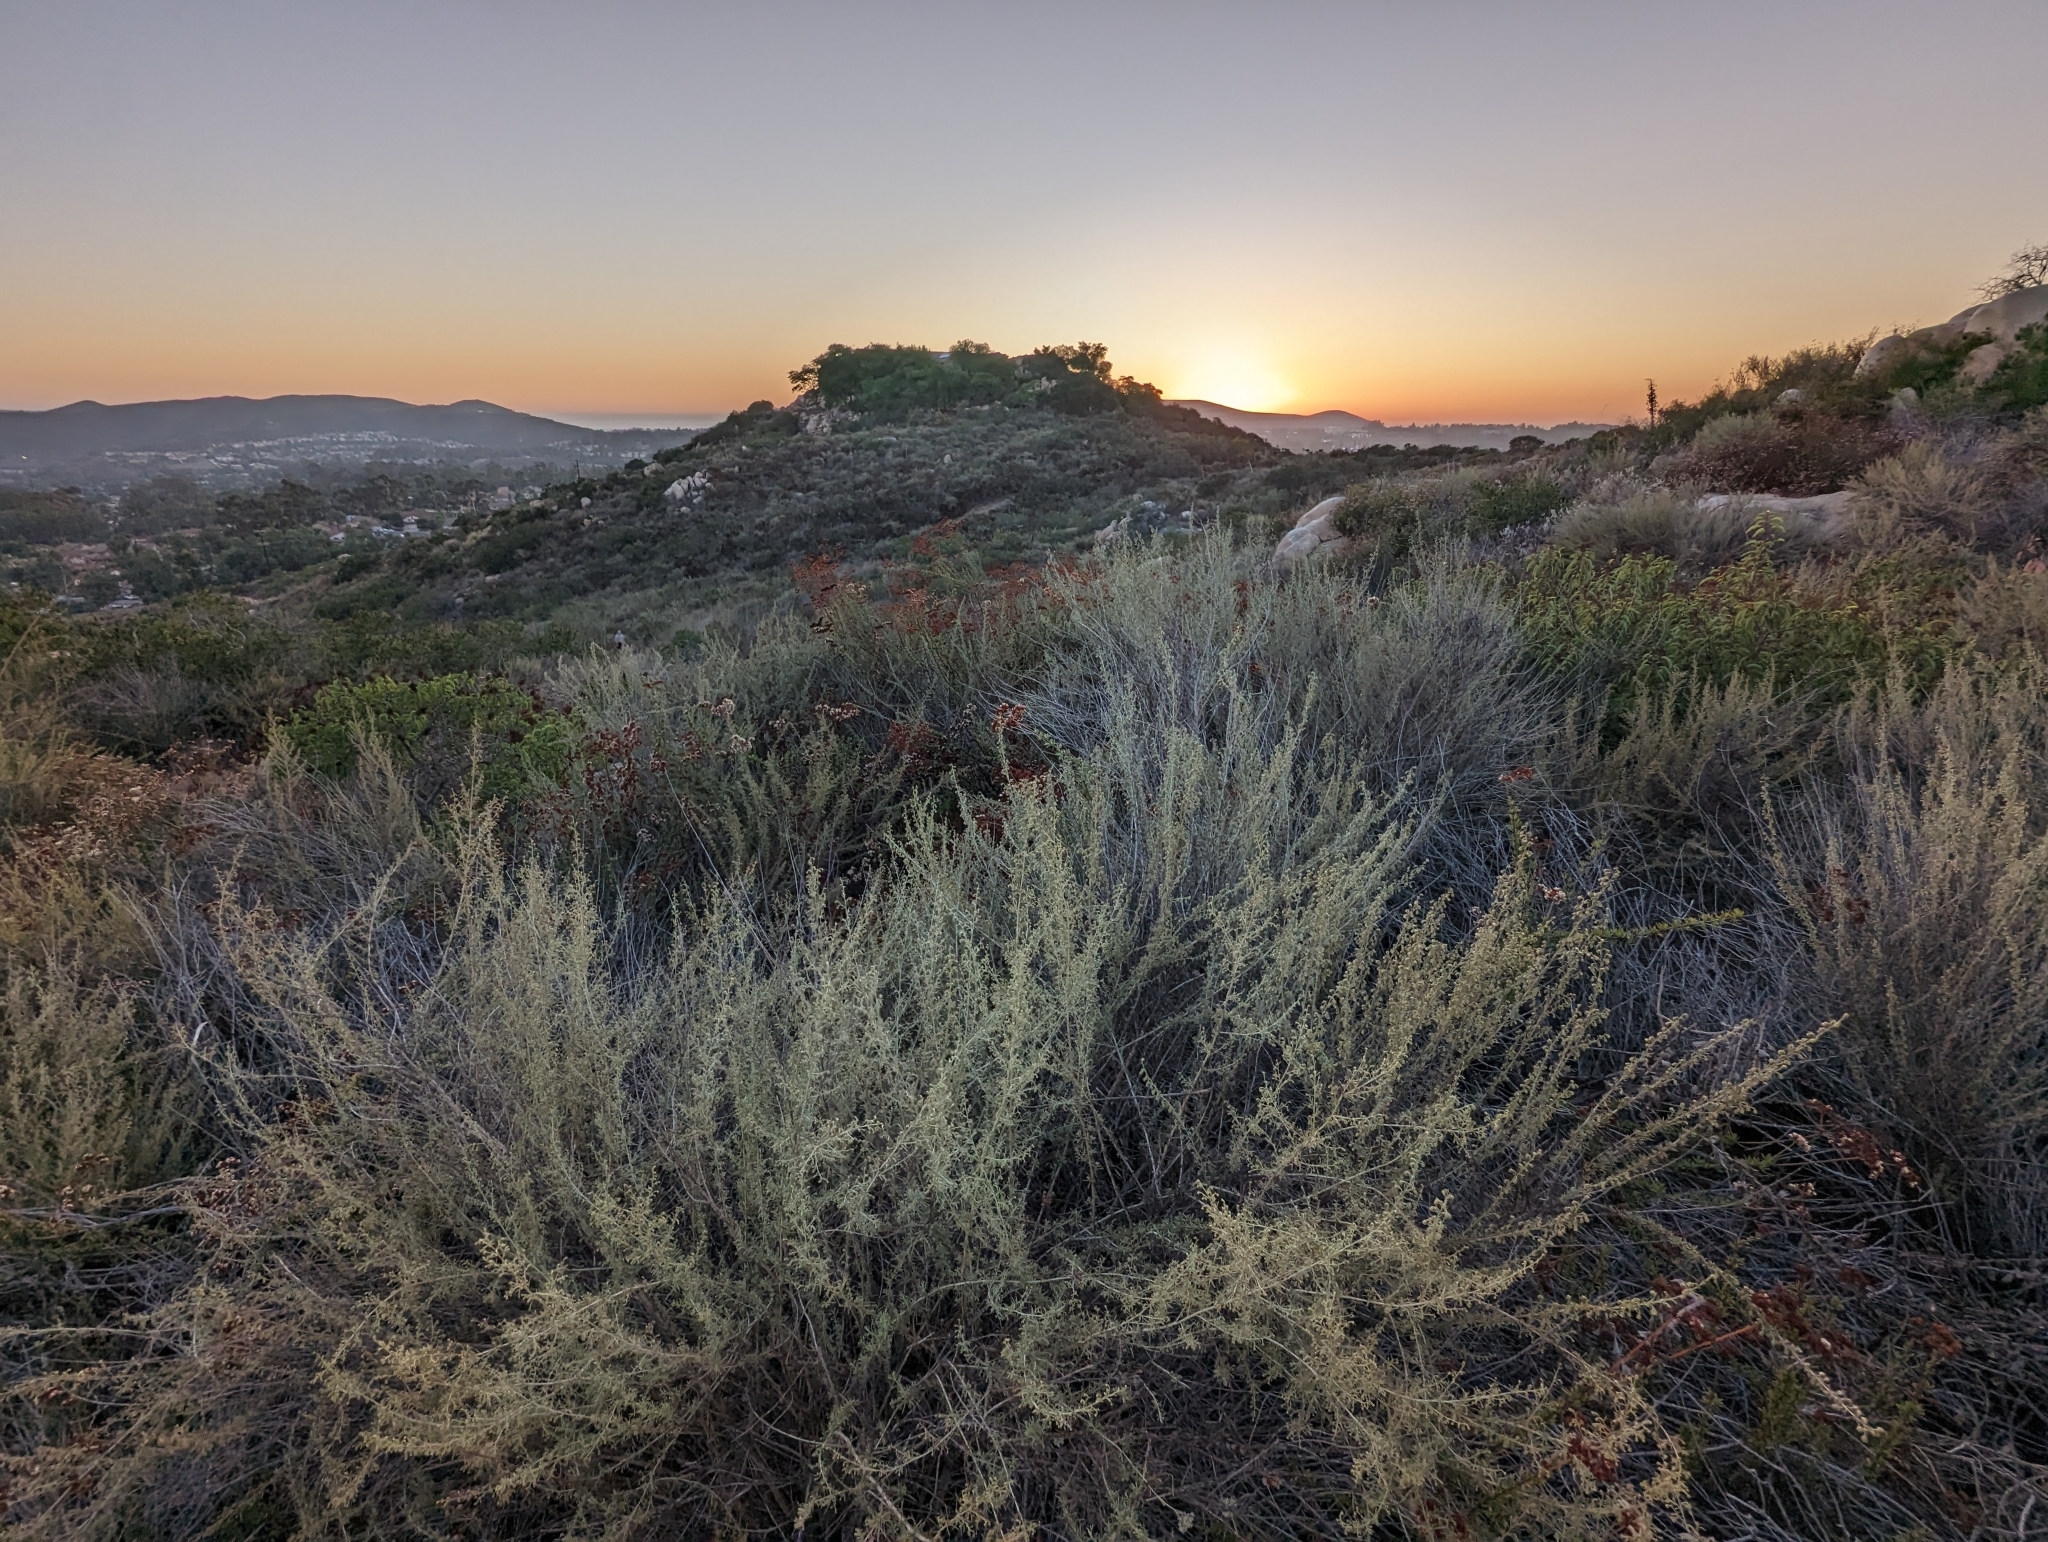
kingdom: Plantae
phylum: Tracheophyta
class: Magnoliopsida
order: Asterales
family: Asteraceae
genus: Artemisia
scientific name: Artemisia californica
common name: California sagebrush
